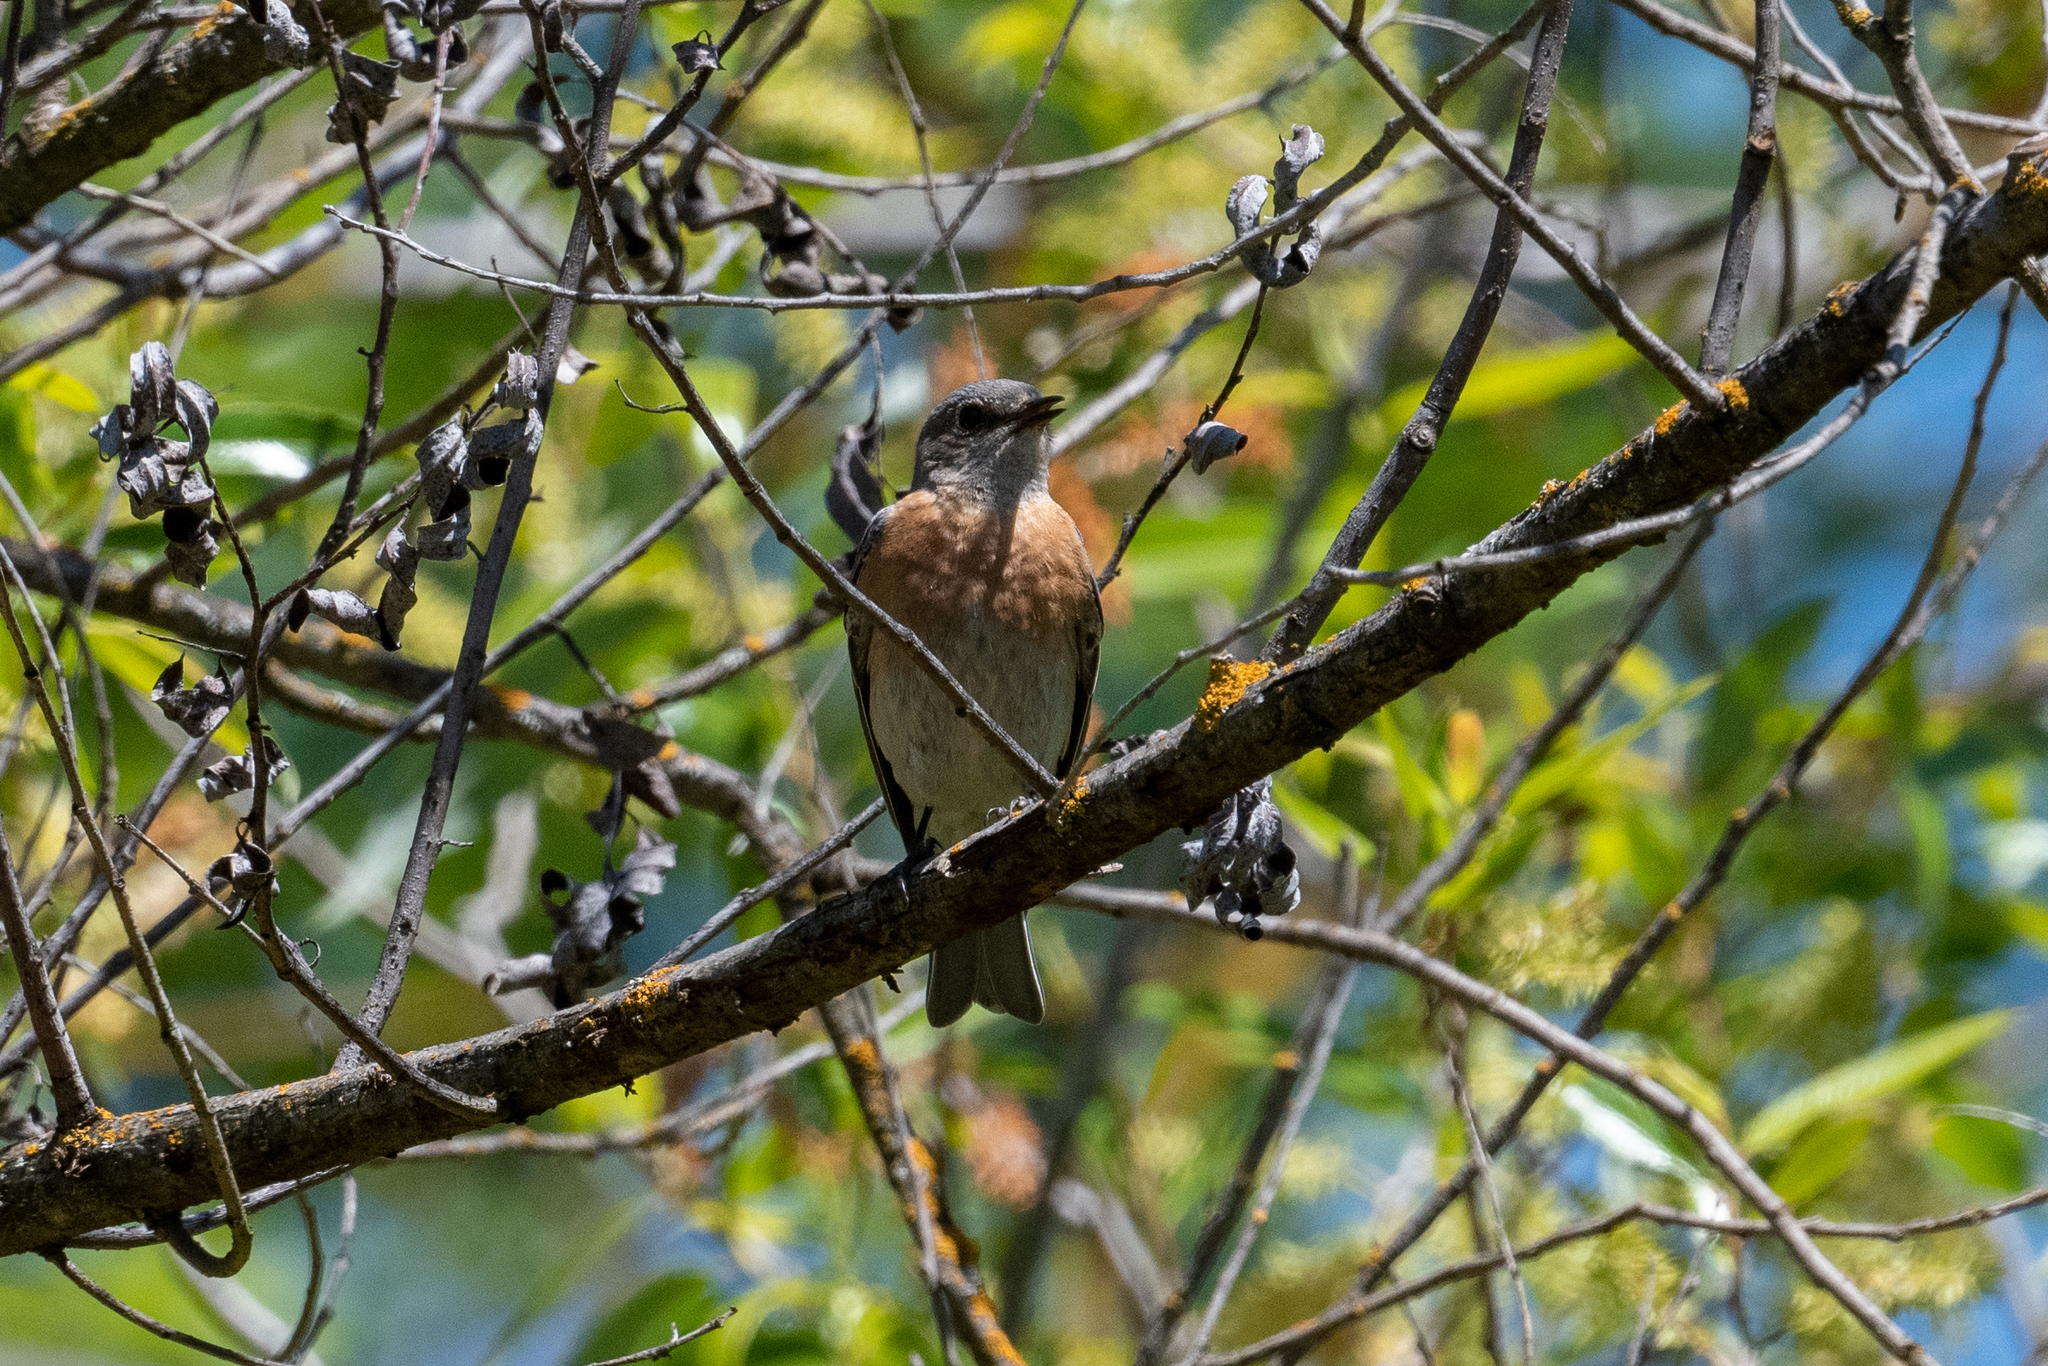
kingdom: Animalia
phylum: Chordata
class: Aves
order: Passeriformes
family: Turdidae
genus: Sialia
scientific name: Sialia mexicana
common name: Western bluebird
